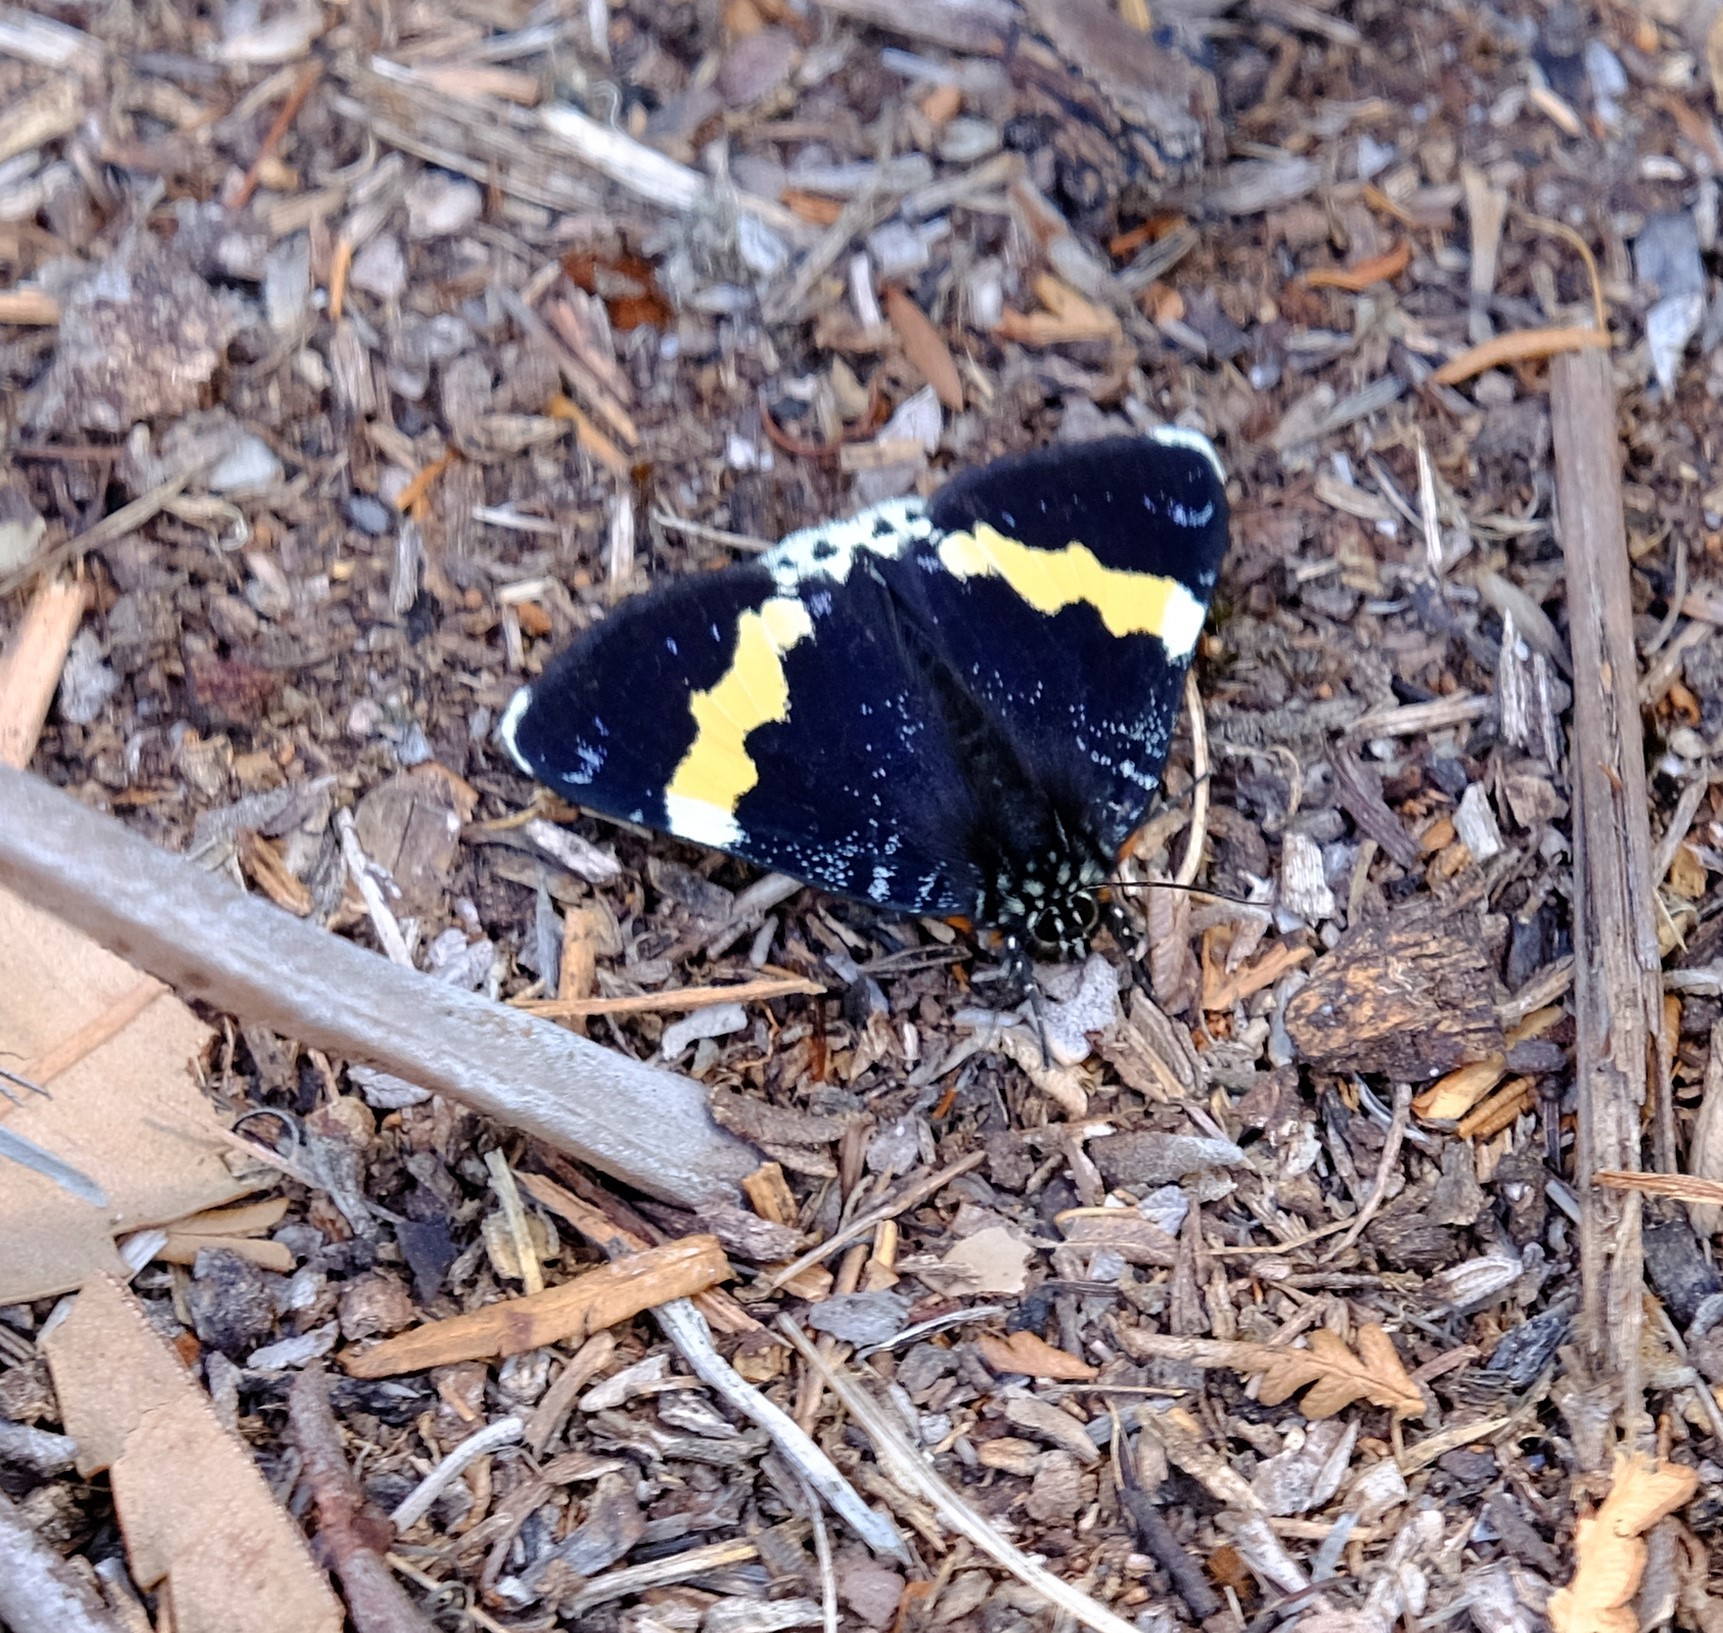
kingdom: Animalia
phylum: Arthropoda
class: Insecta
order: Lepidoptera
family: Noctuidae
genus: Eutrichopidia
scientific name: Eutrichopidia latinus
